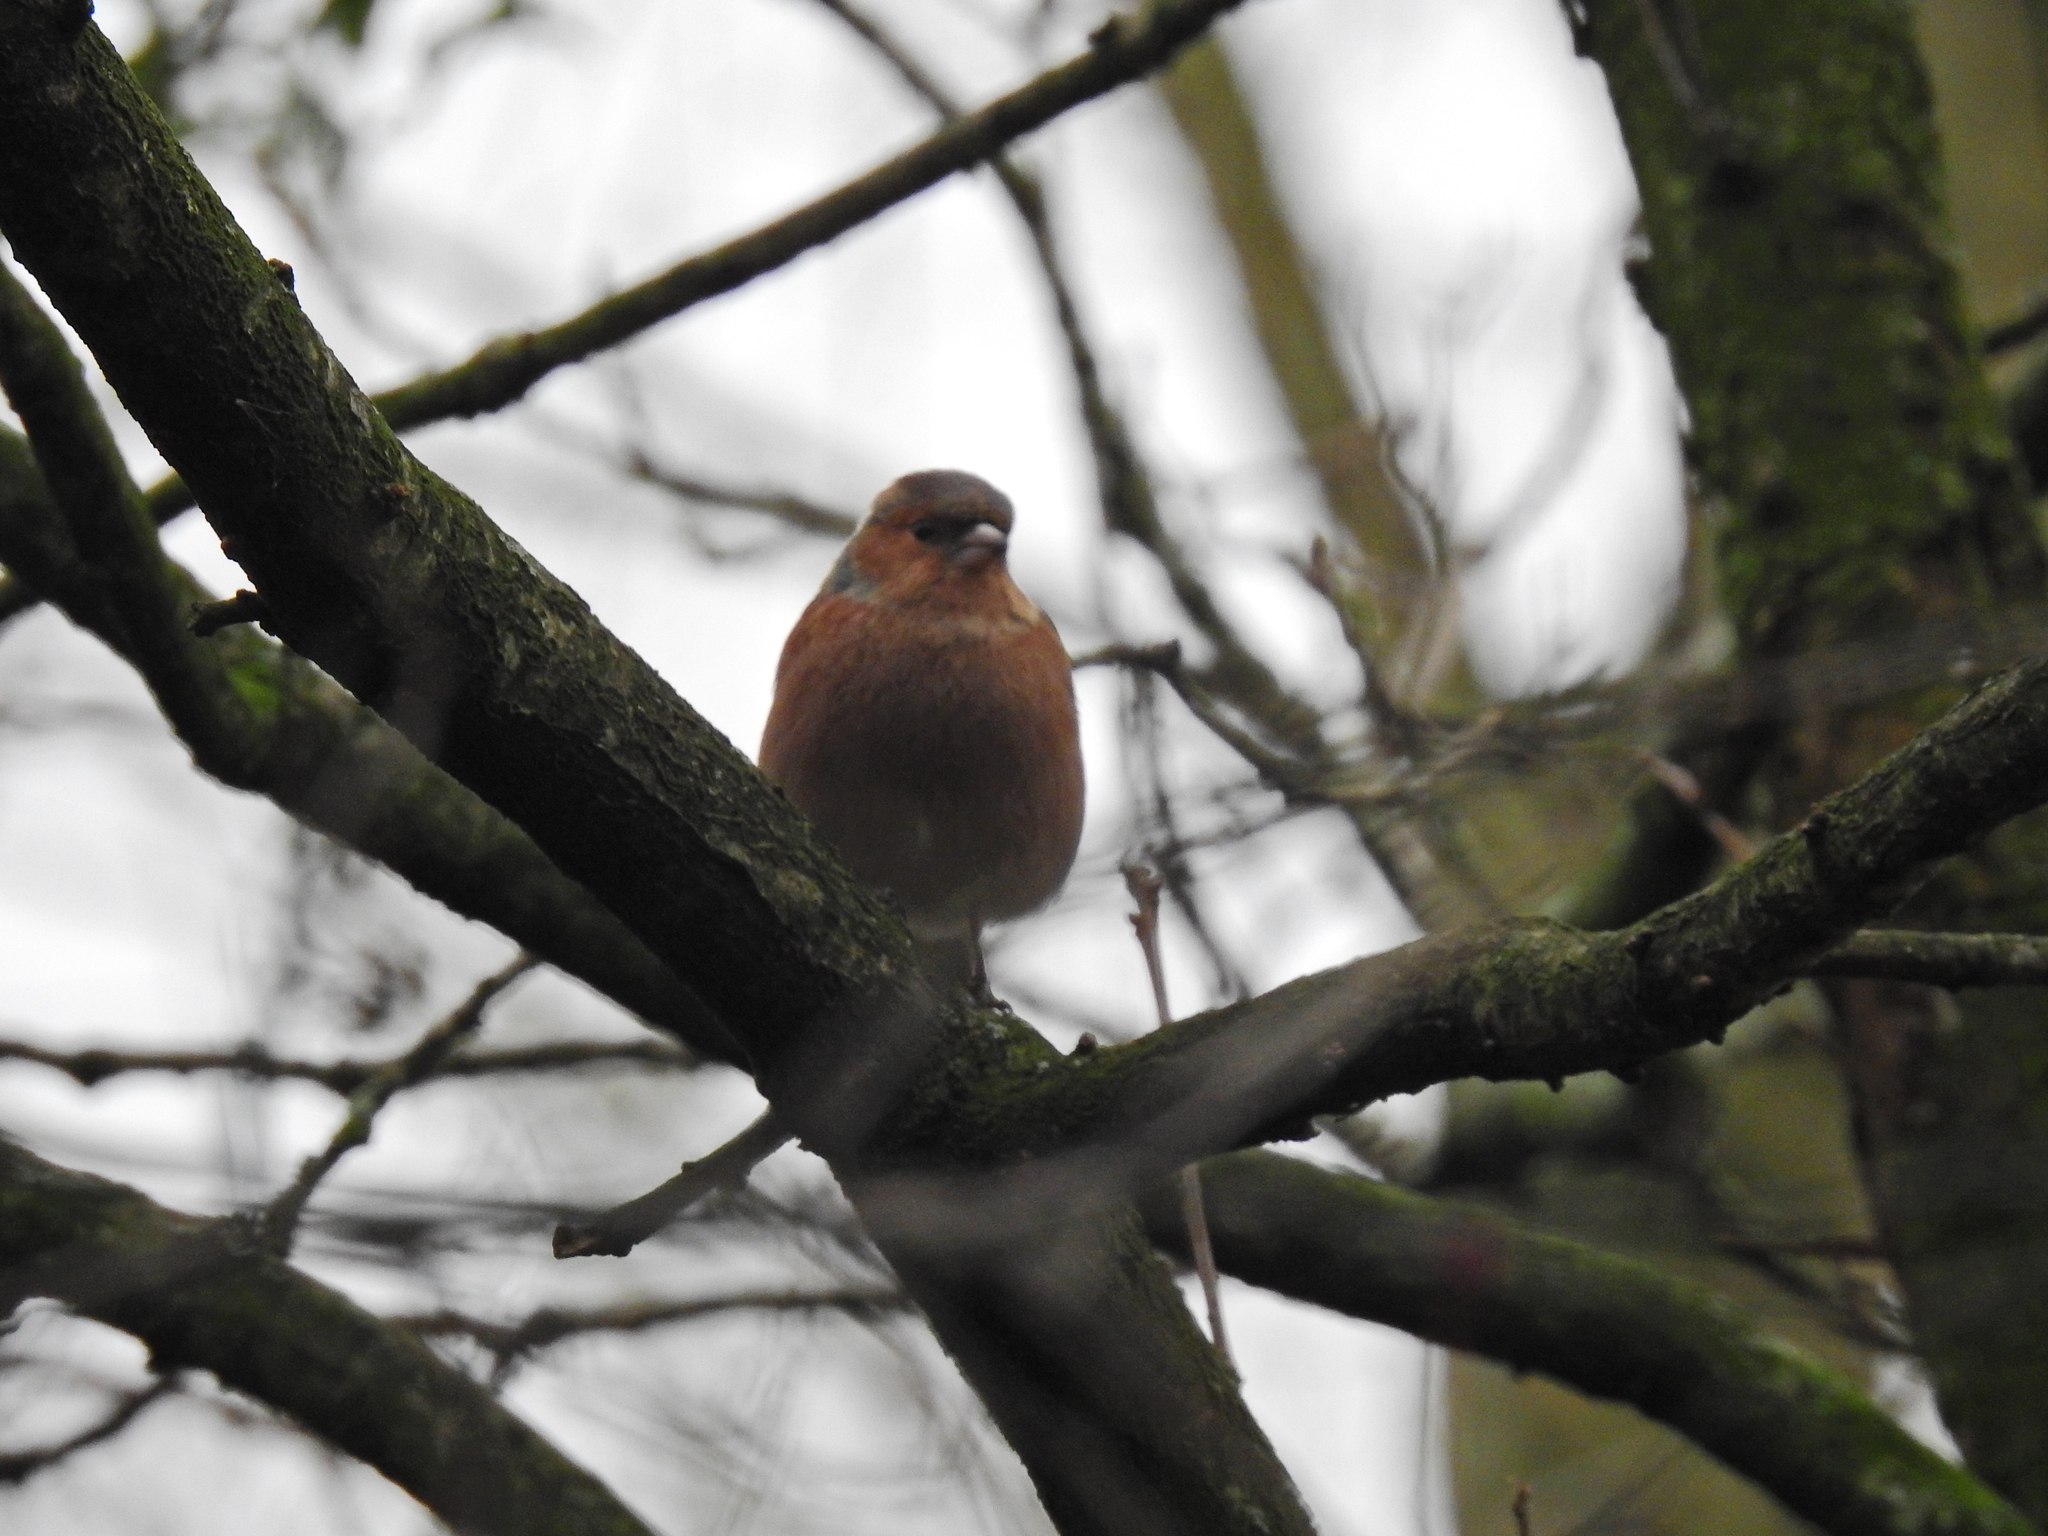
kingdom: Animalia
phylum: Chordata
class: Aves
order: Passeriformes
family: Fringillidae
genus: Fringilla
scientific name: Fringilla coelebs
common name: Common chaffinch
